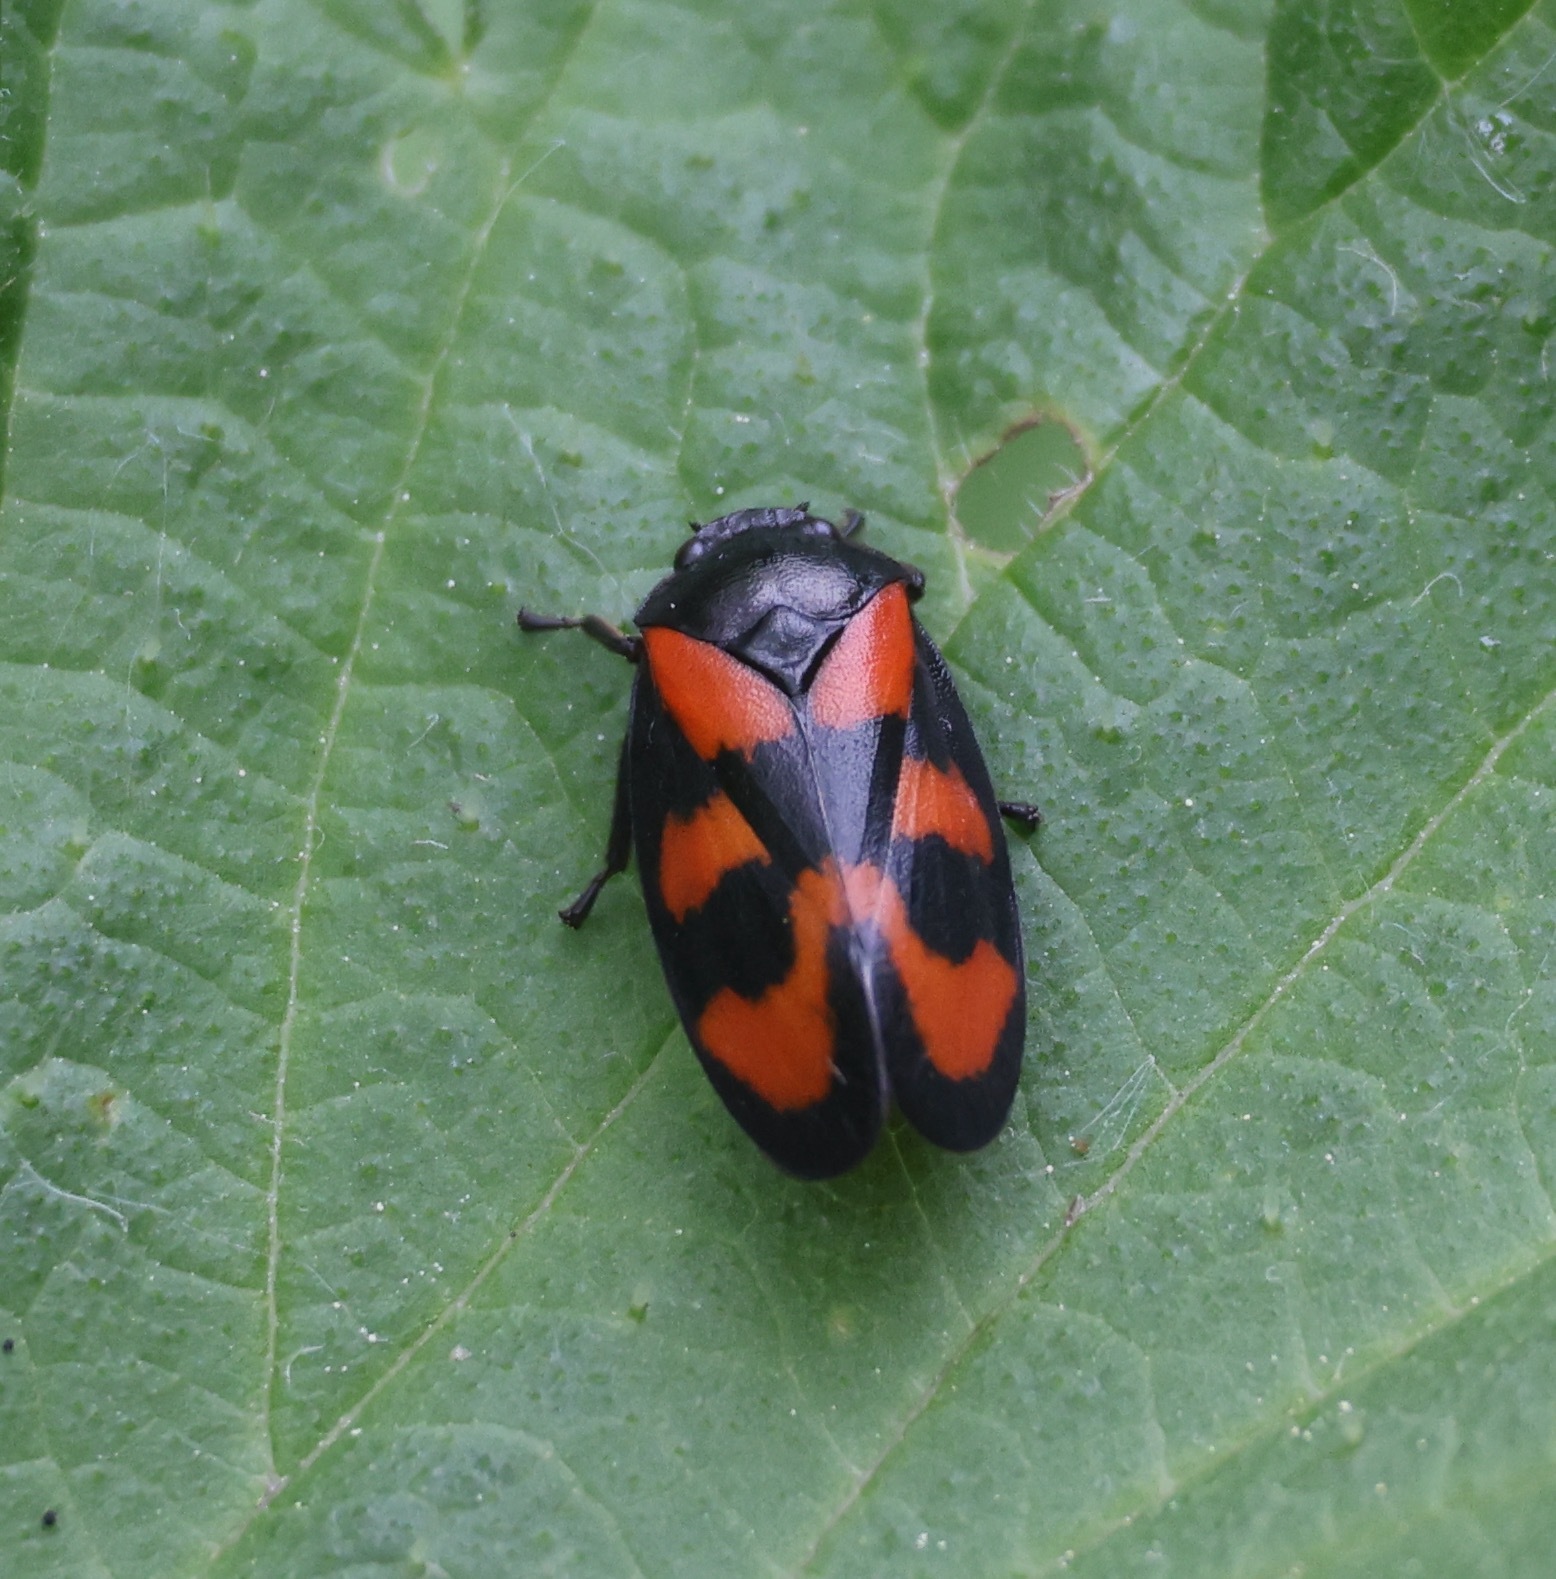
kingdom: Animalia
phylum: Arthropoda
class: Insecta
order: Hemiptera
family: Cercopidae
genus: Cercopis
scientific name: Cercopis vulnerata
